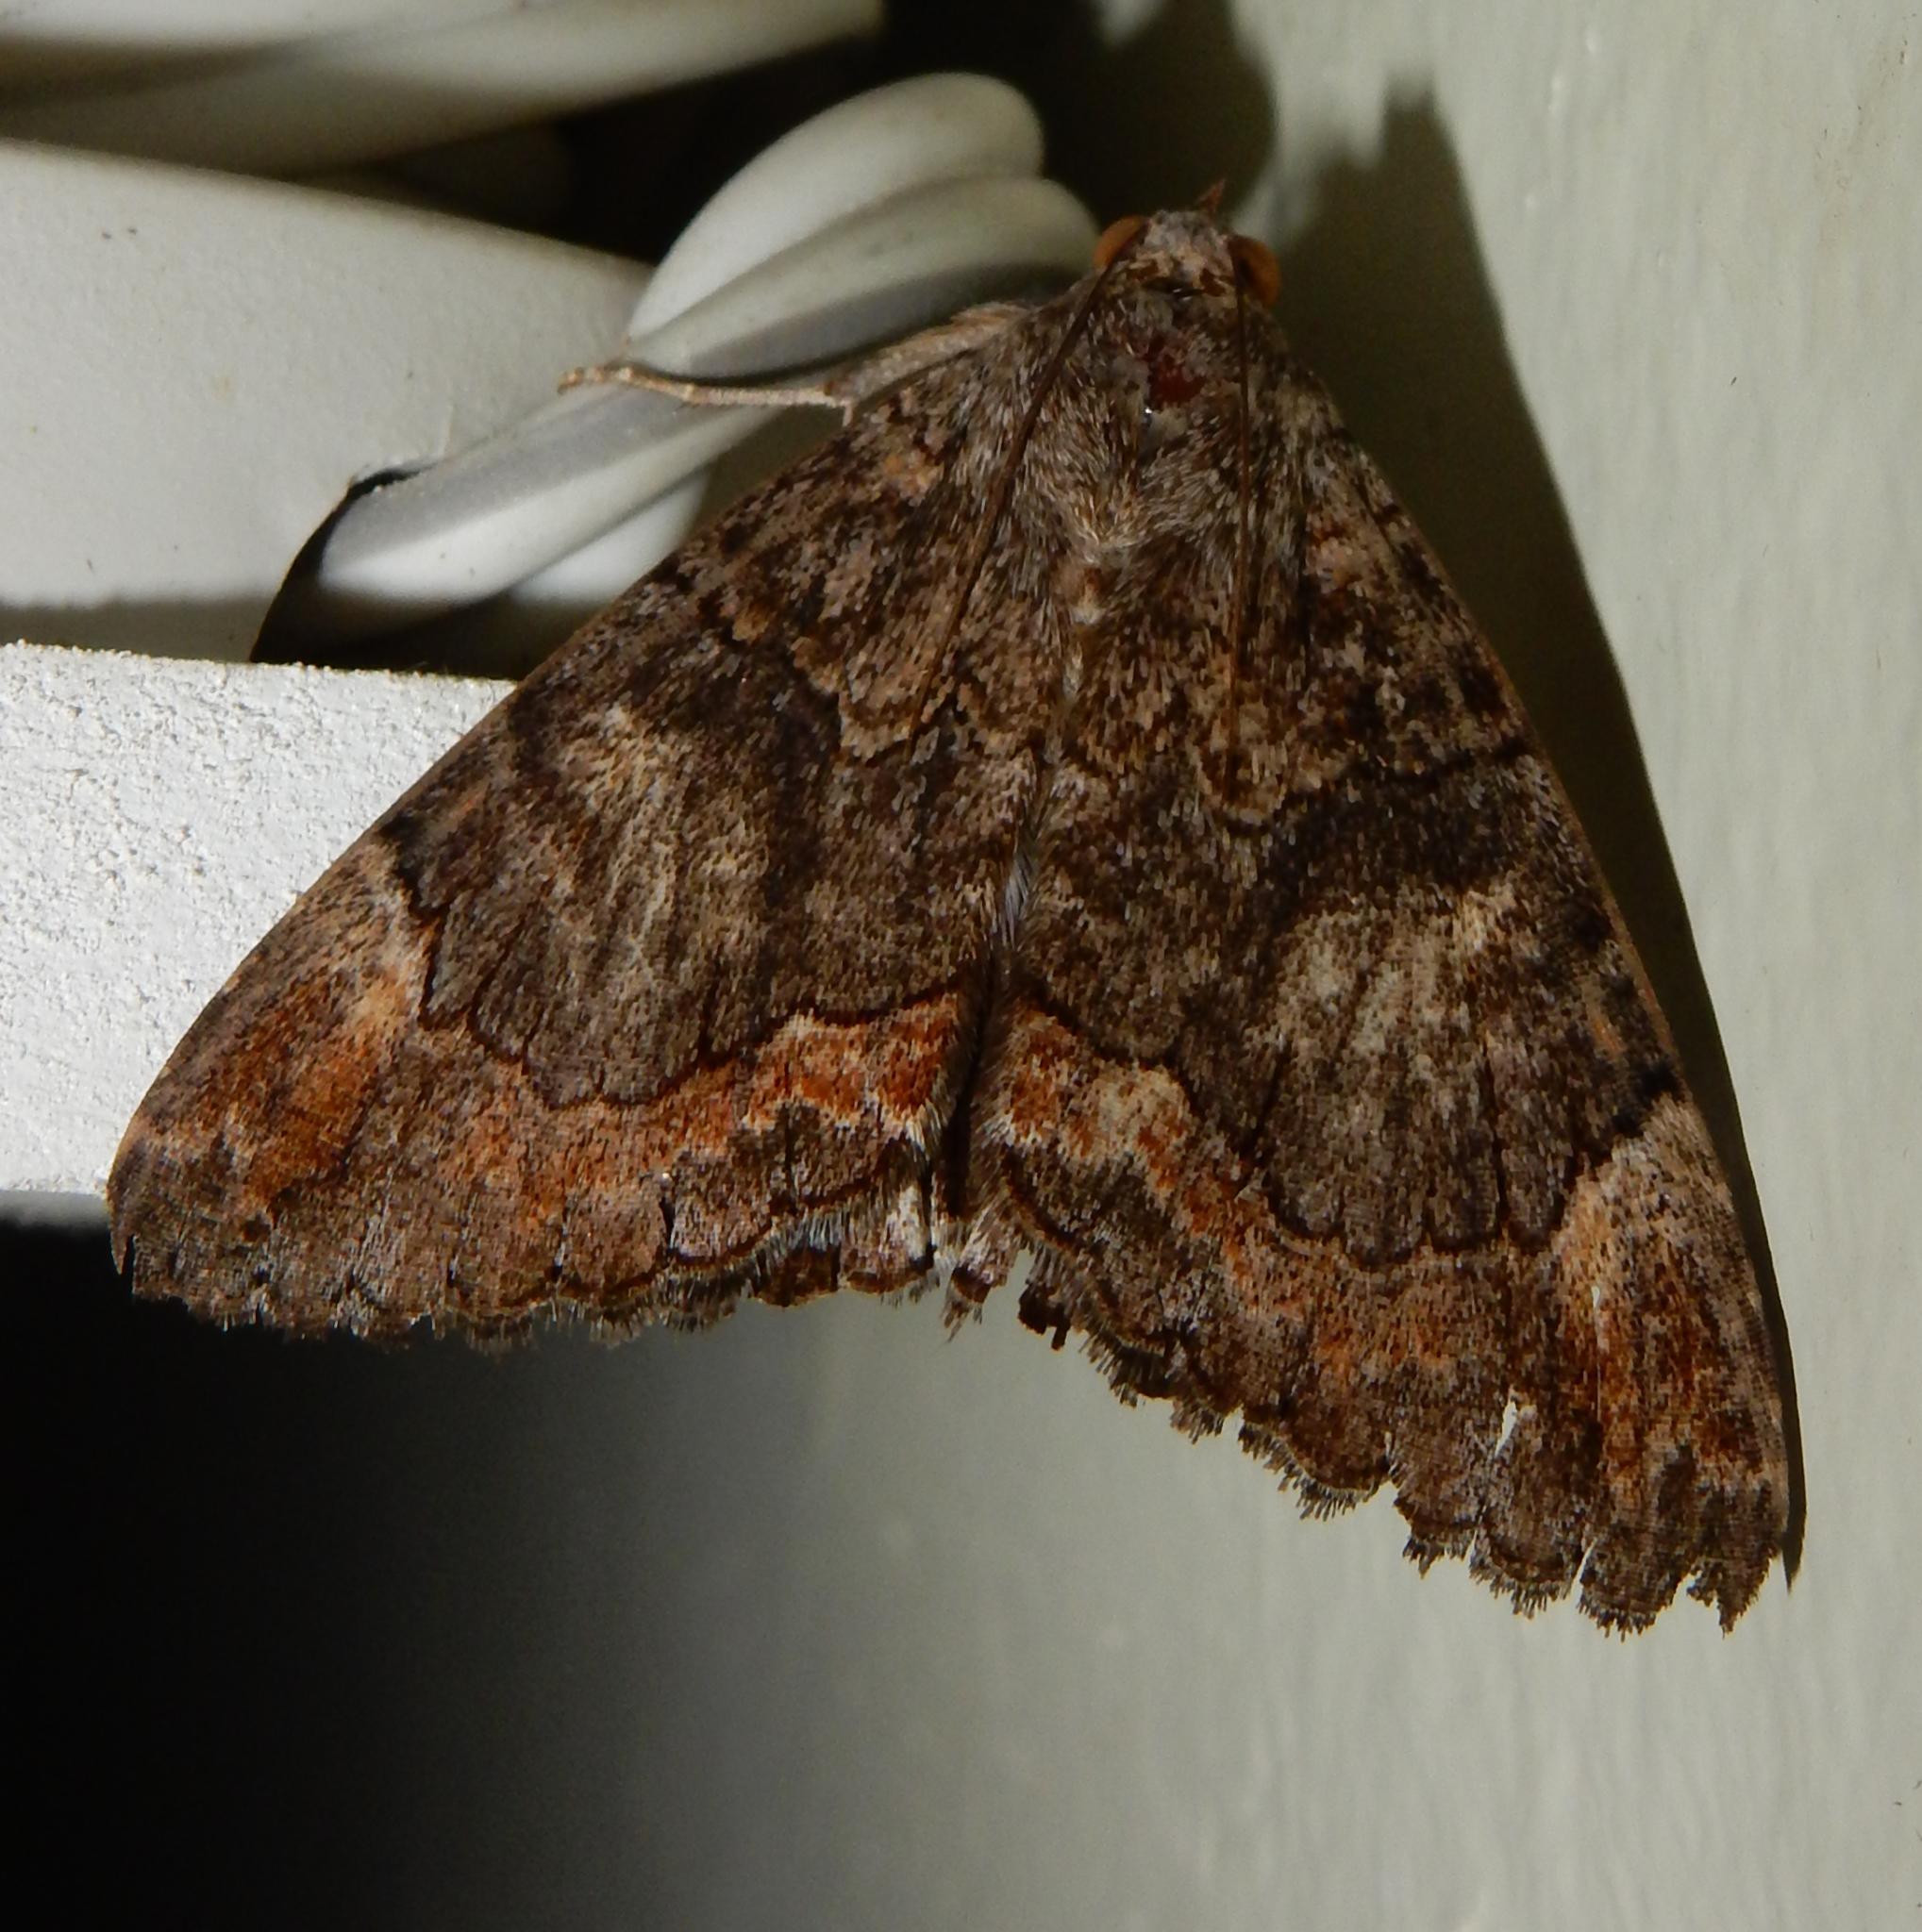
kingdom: Animalia
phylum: Arthropoda
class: Insecta
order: Lepidoptera
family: Erebidae
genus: Achaea
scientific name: Achaea catella
